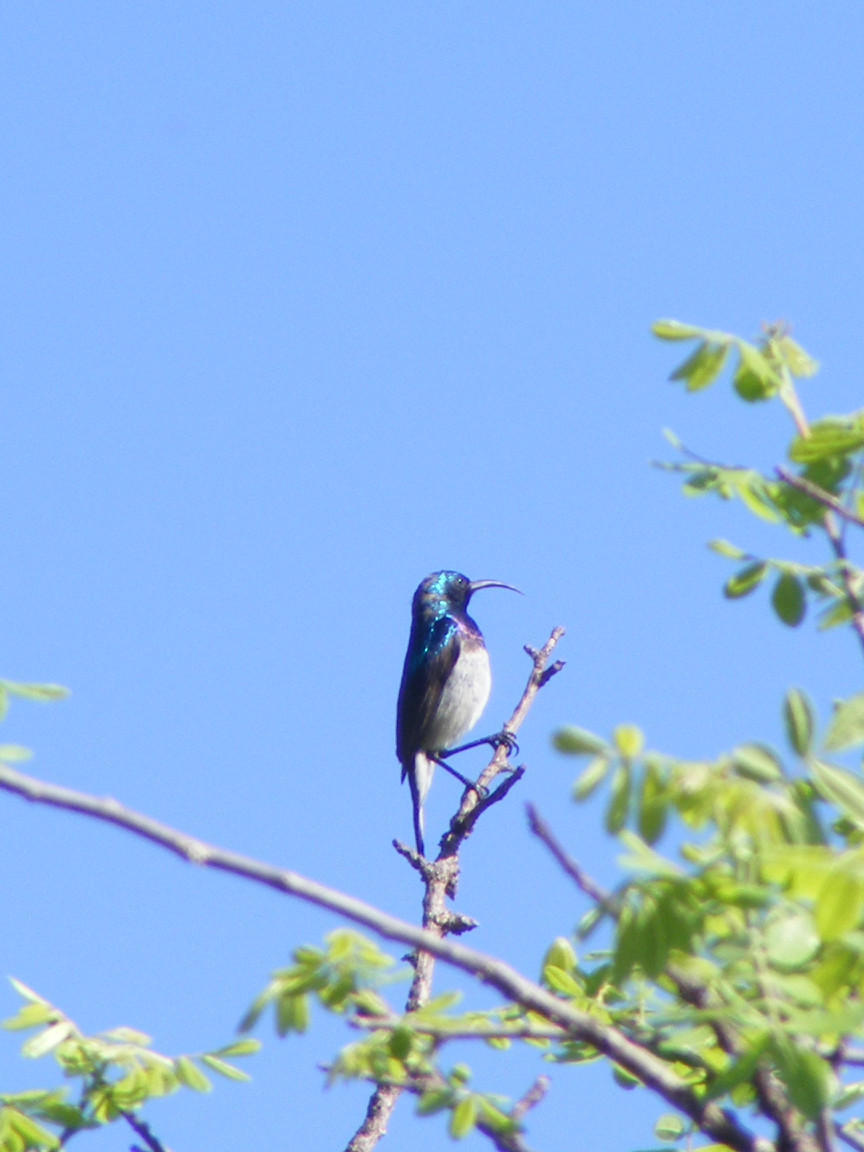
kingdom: Animalia
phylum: Chordata
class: Aves
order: Passeriformes
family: Nectariniidae
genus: Cinnyris
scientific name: Cinnyris talatala
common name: White-bellied sunbird
